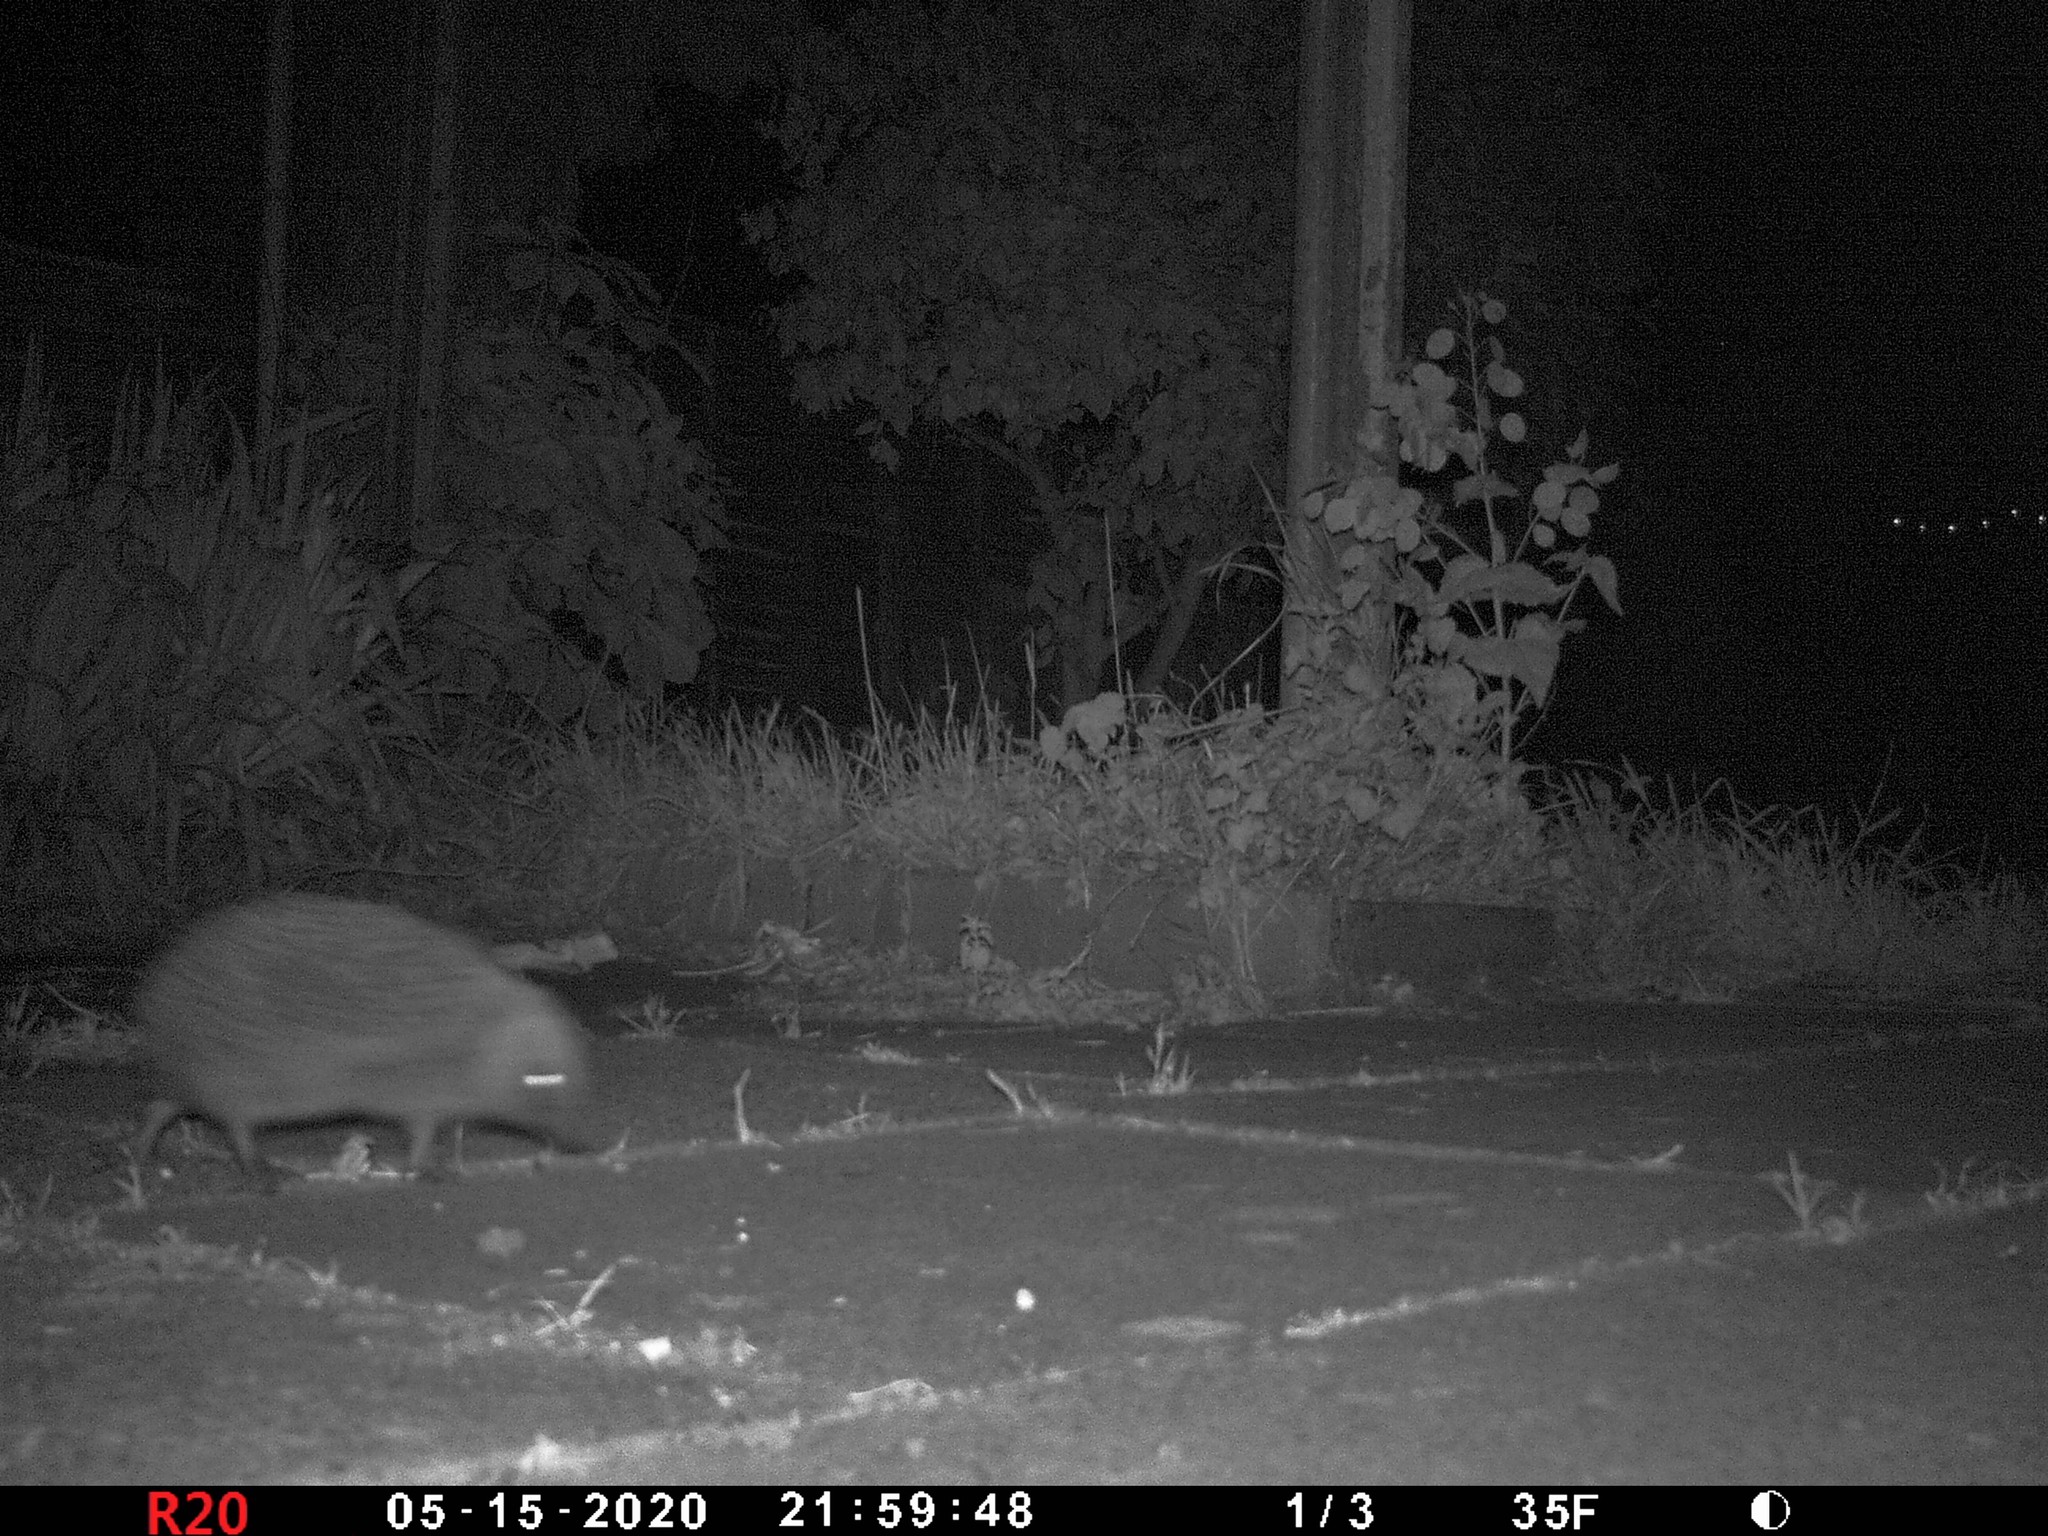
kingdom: Animalia
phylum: Chordata
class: Mammalia
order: Erinaceomorpha
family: Erinaceidae
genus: Erinaceus
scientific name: Erinaceus europaeus
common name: West european hedgehog
